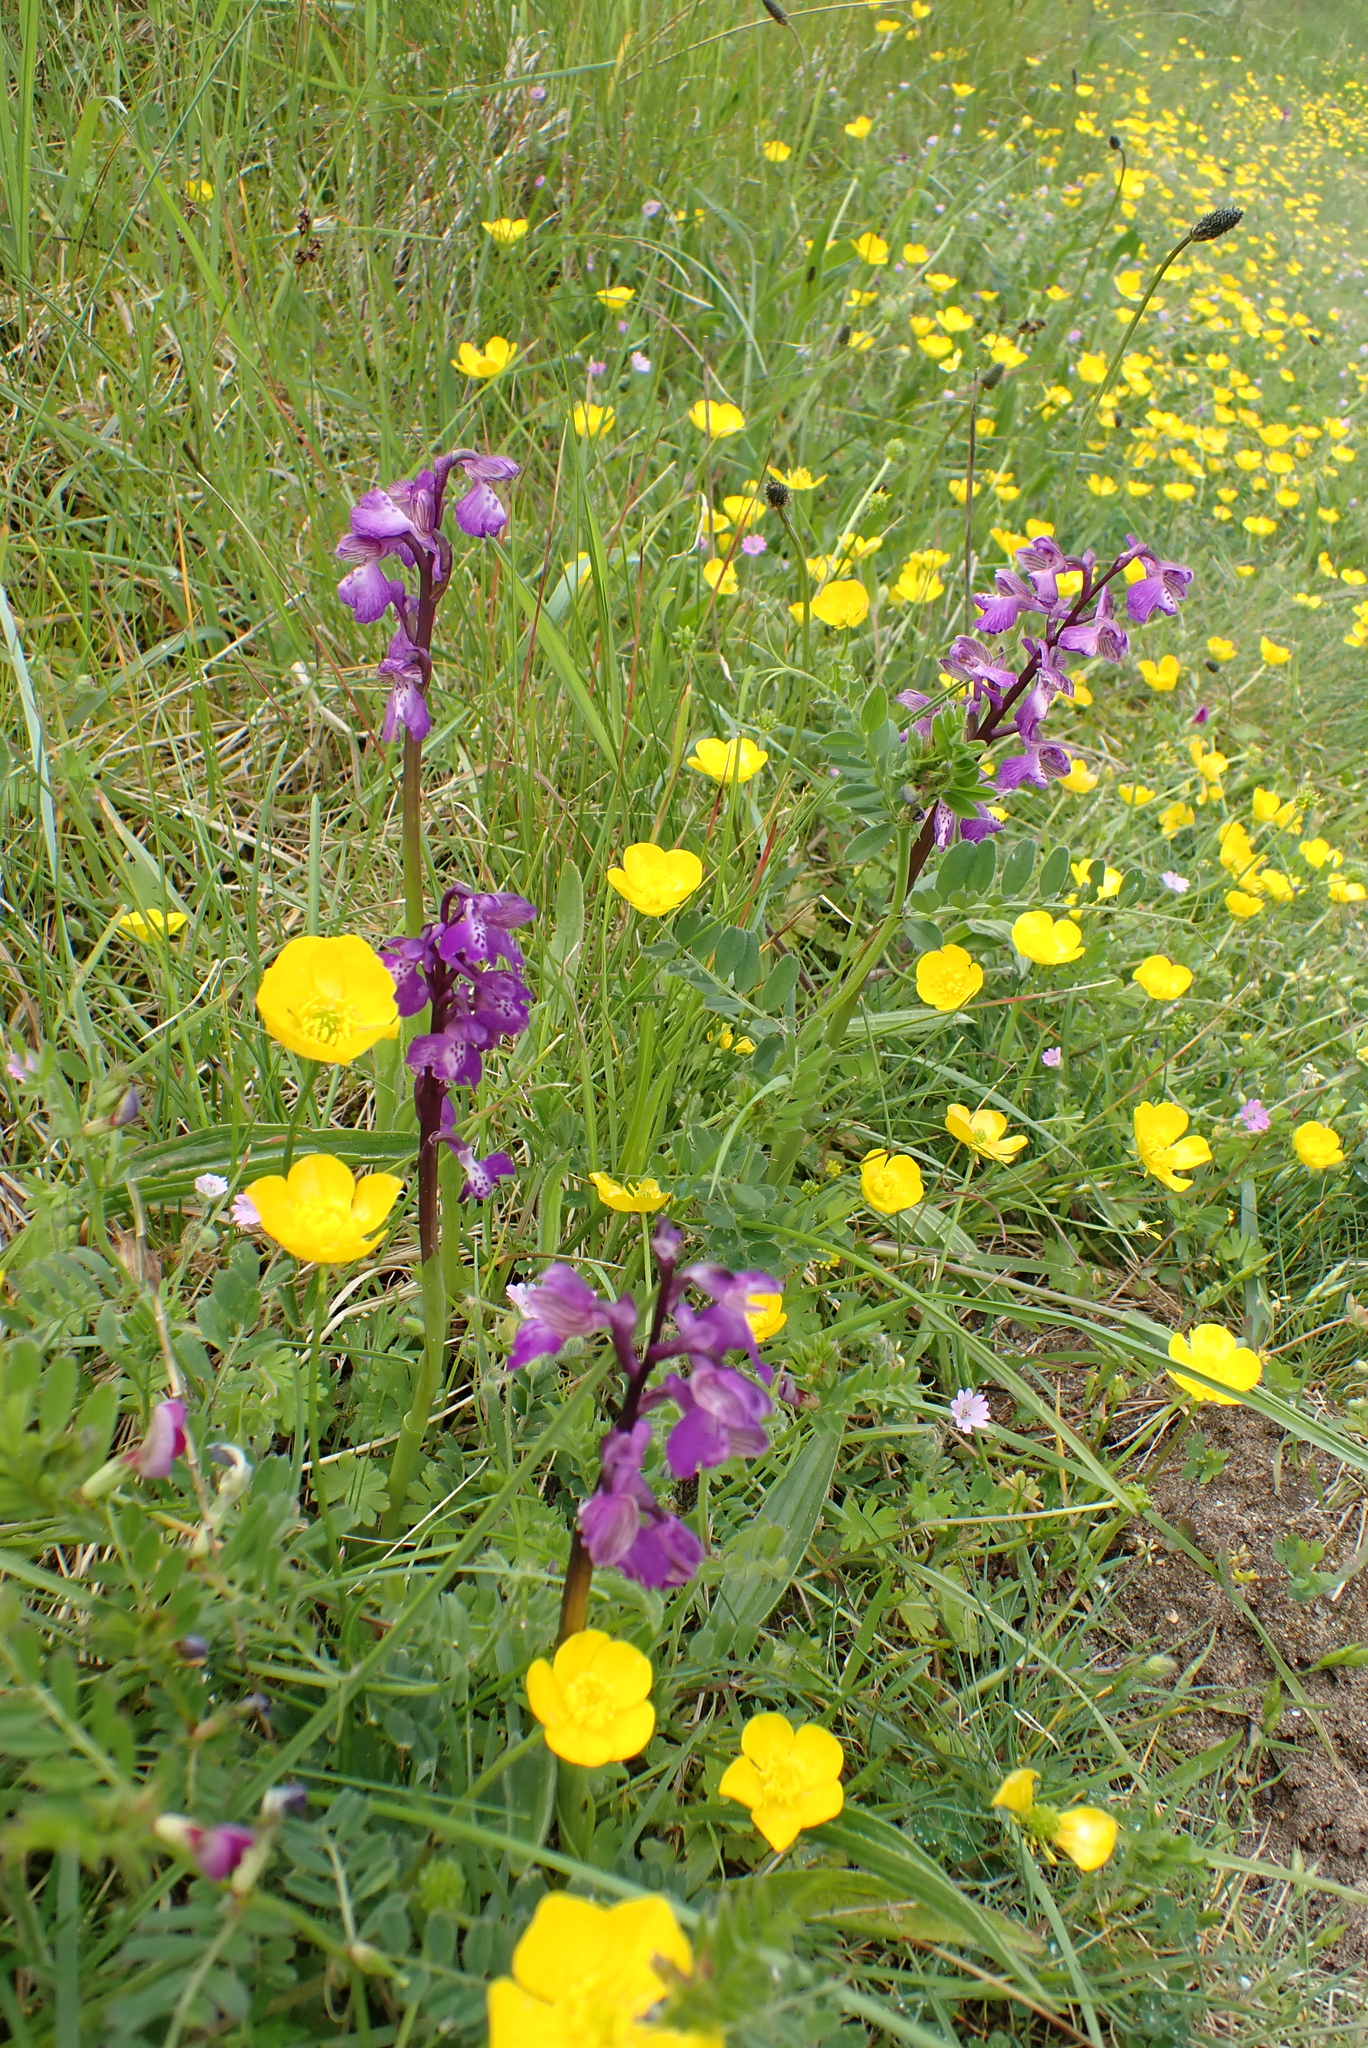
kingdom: Plantae
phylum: Tracheophyta
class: Liliopsida
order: Asparagales
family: Orchidaceae
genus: Anacamptis
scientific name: Anacamptis morio
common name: Green-winged orchid
